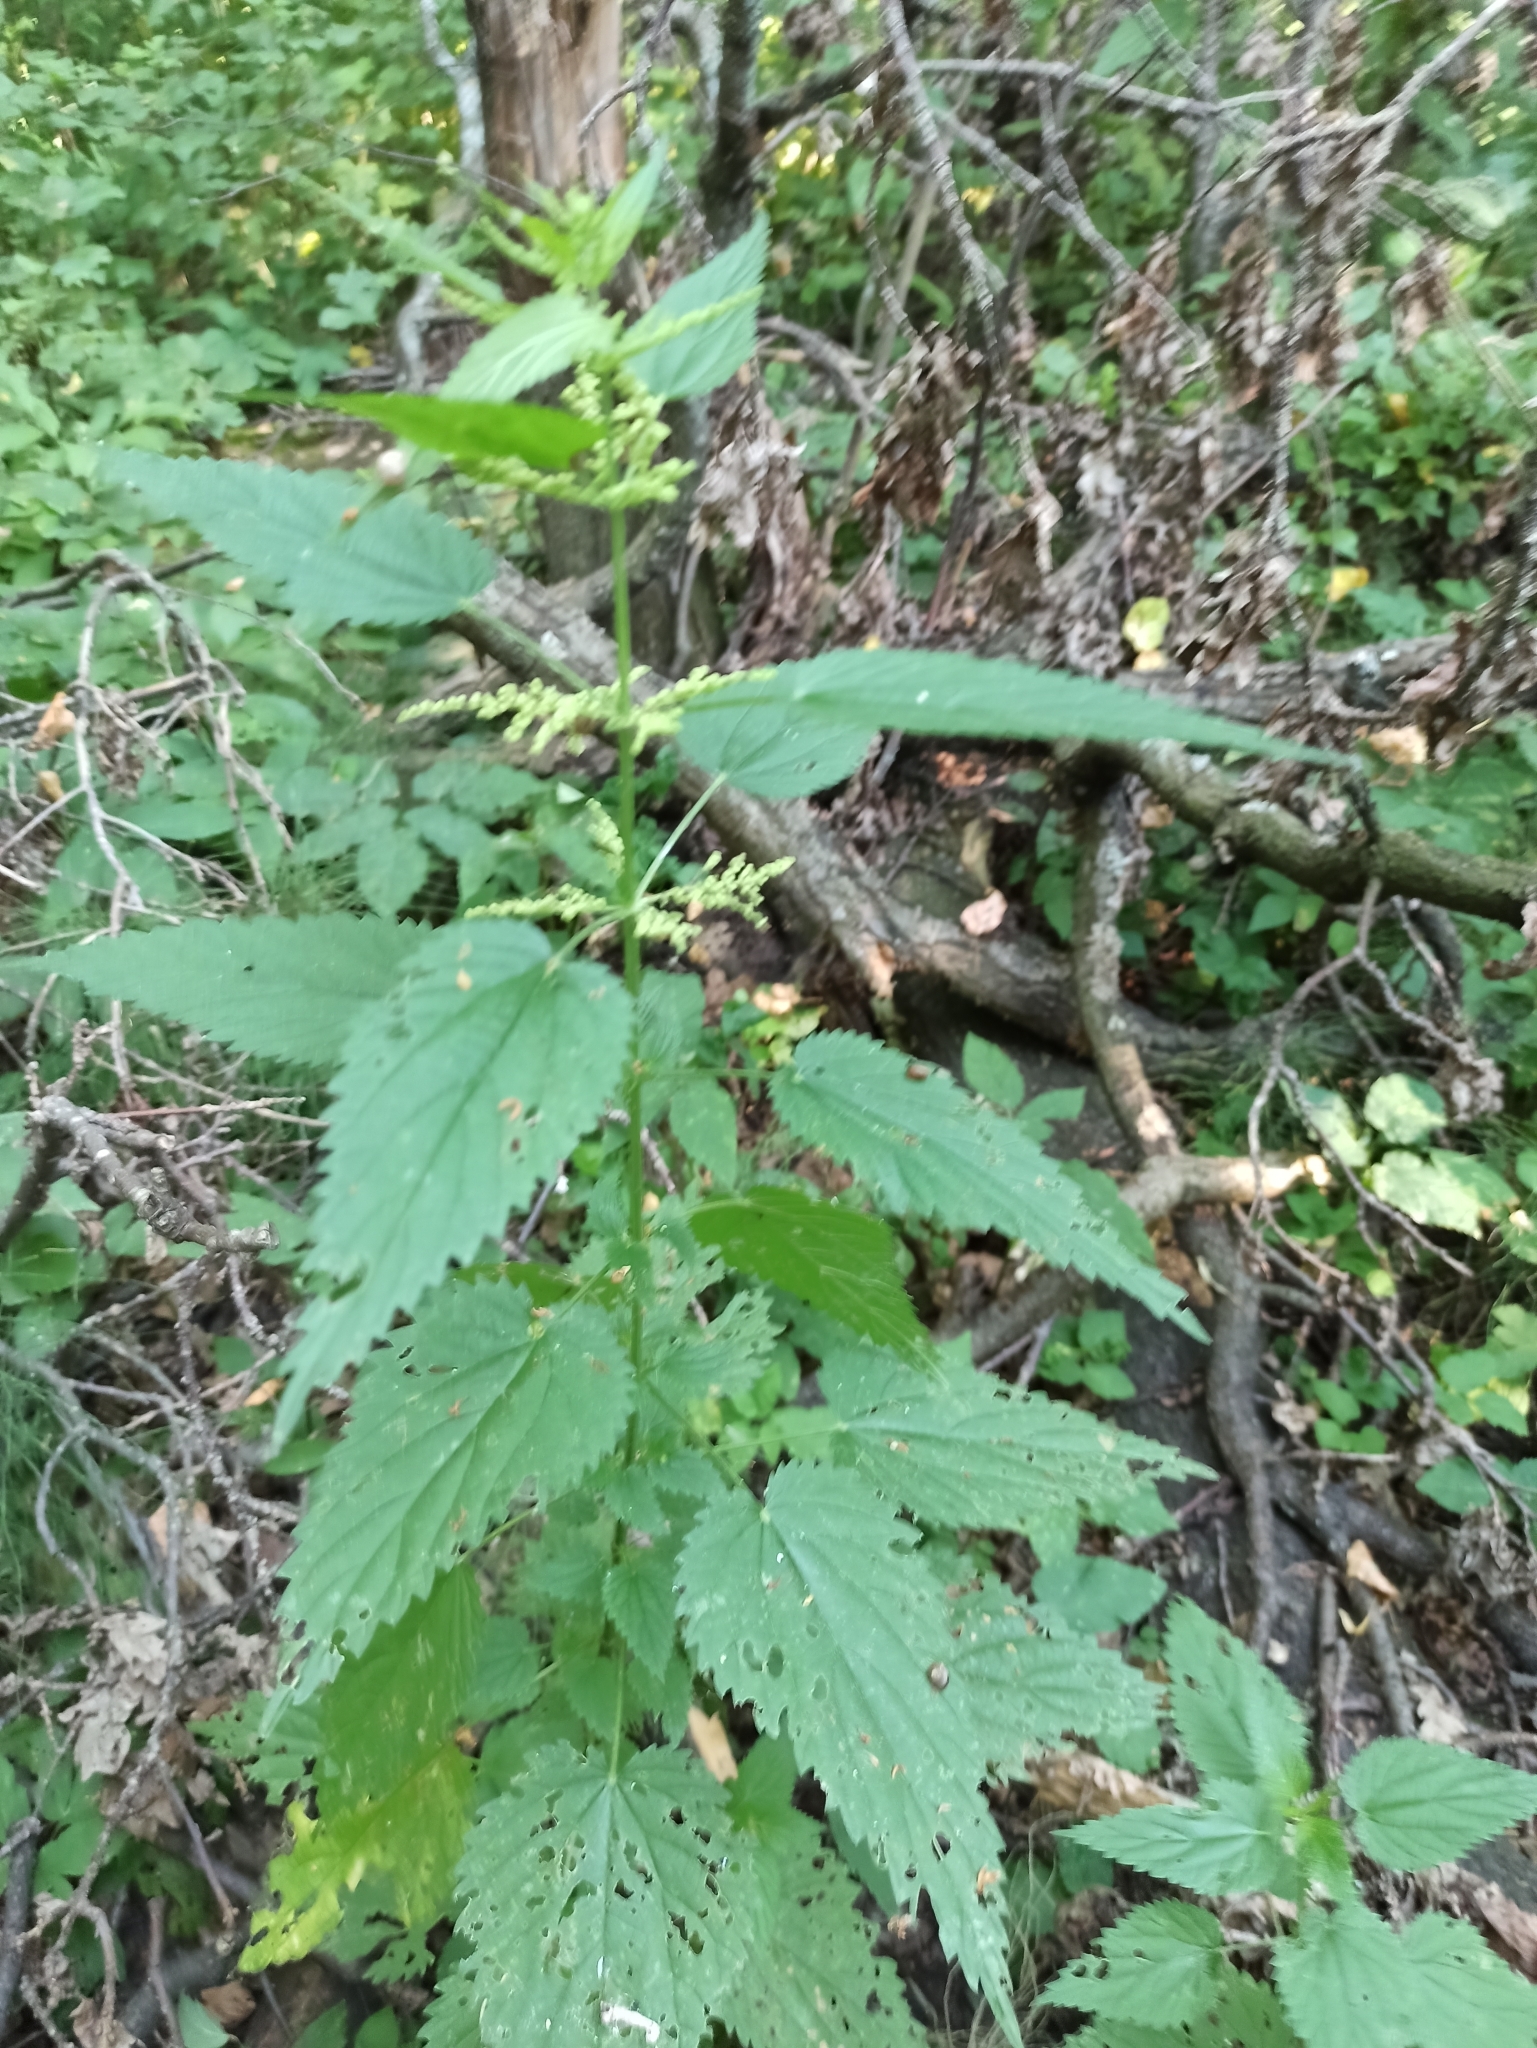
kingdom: Plantae
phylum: Tracheophyta
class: Magnoliopsida
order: Rosales
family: Urticaceae
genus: Urtica
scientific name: Urtica dioica
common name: Common nettle
